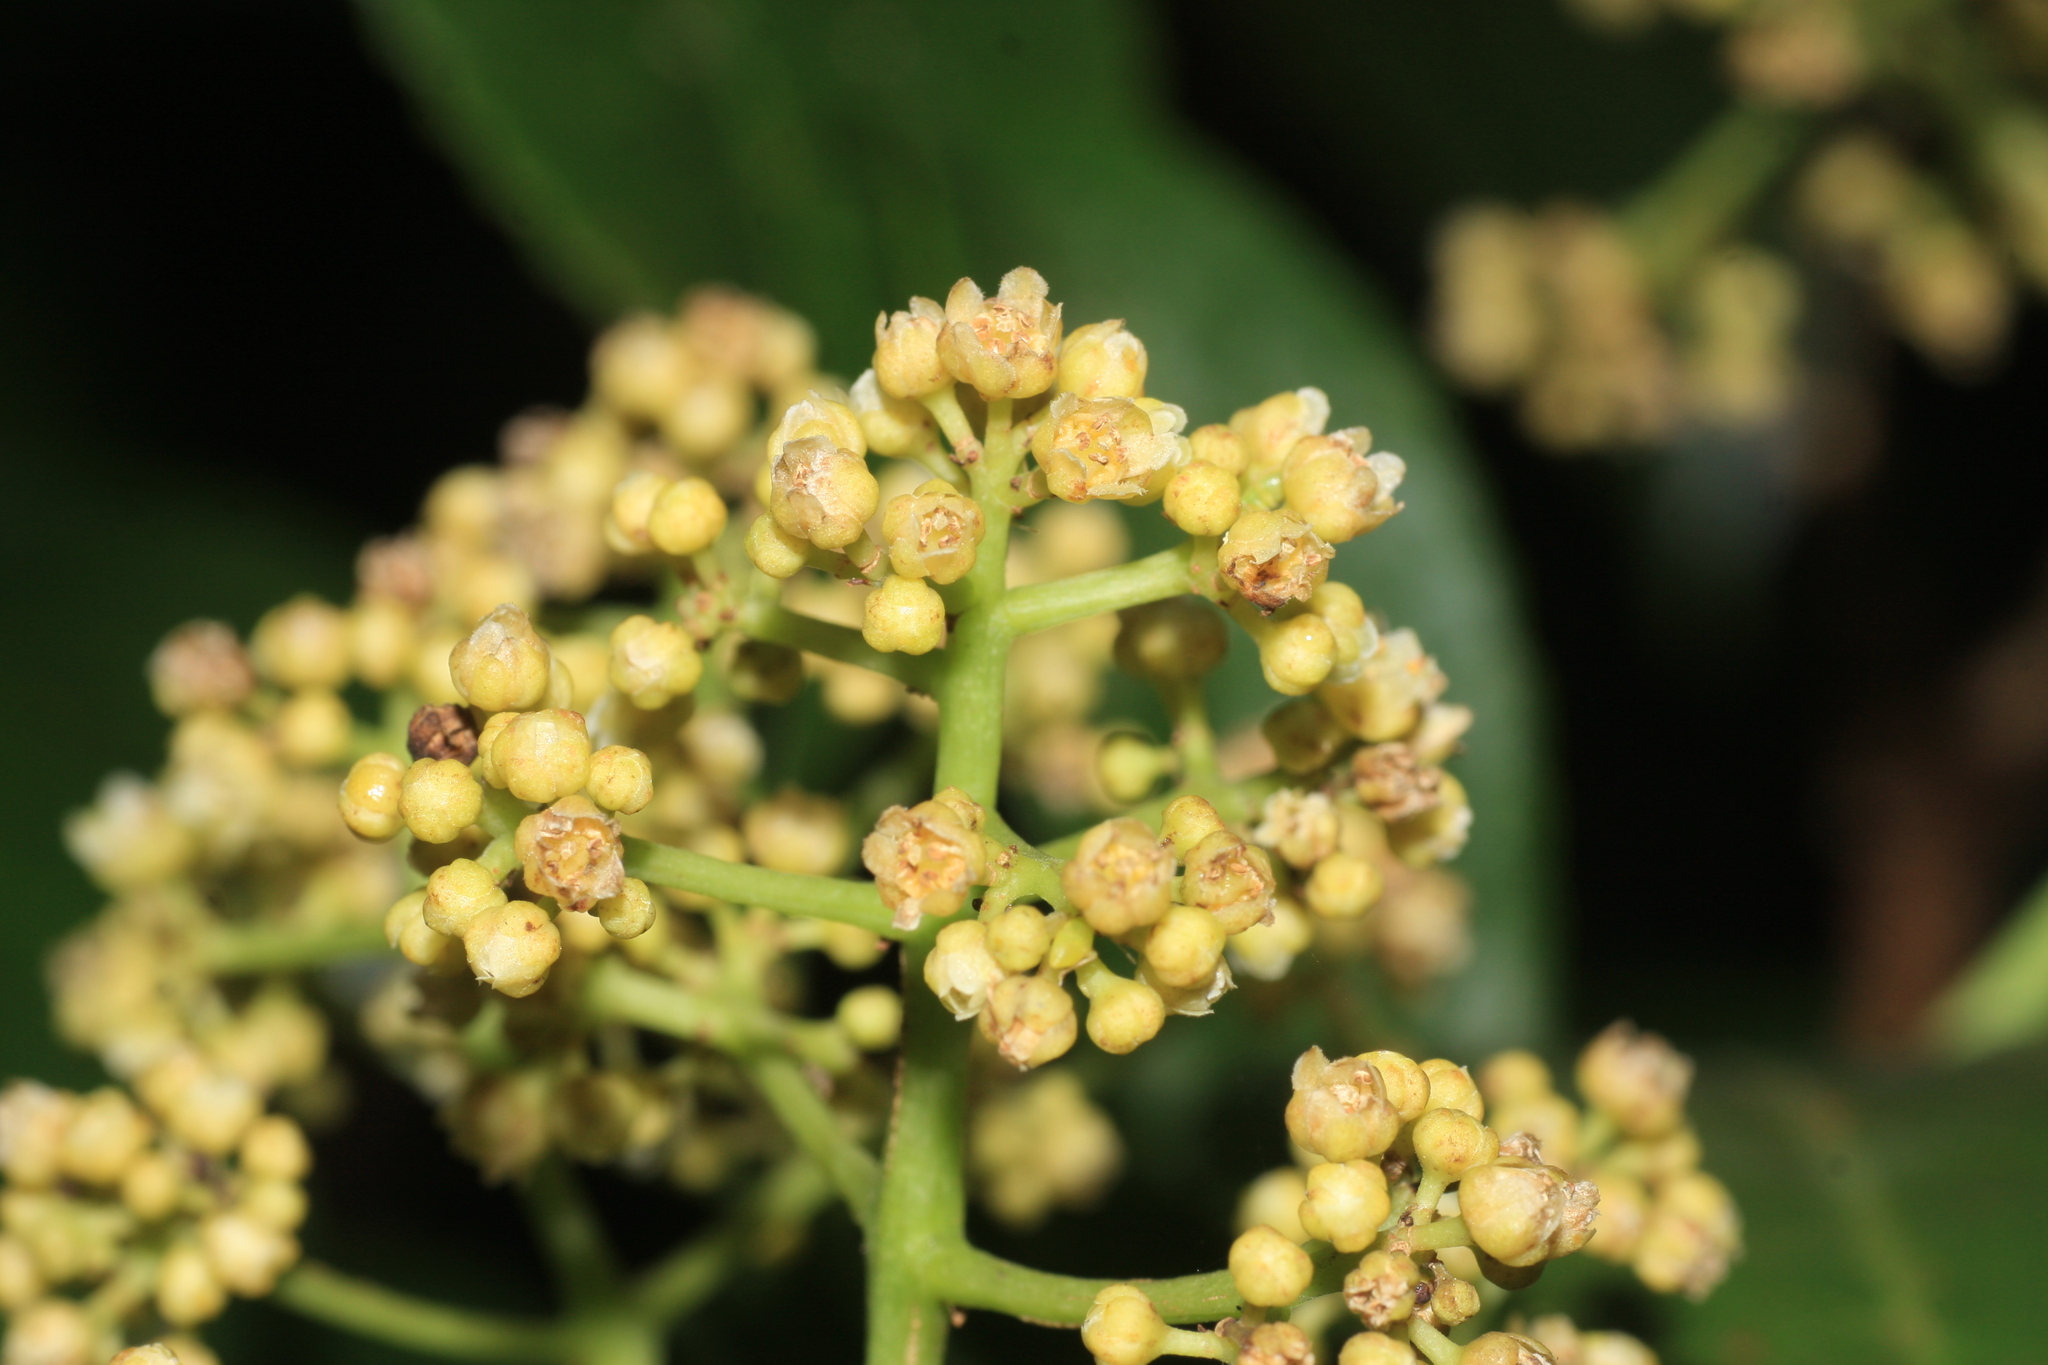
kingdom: Plantae
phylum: Tracheophyta
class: Magnoliopsida
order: Crossosomatales
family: Staphyleaceae
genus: Turpinia
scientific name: Turpinia cochinchinensis
